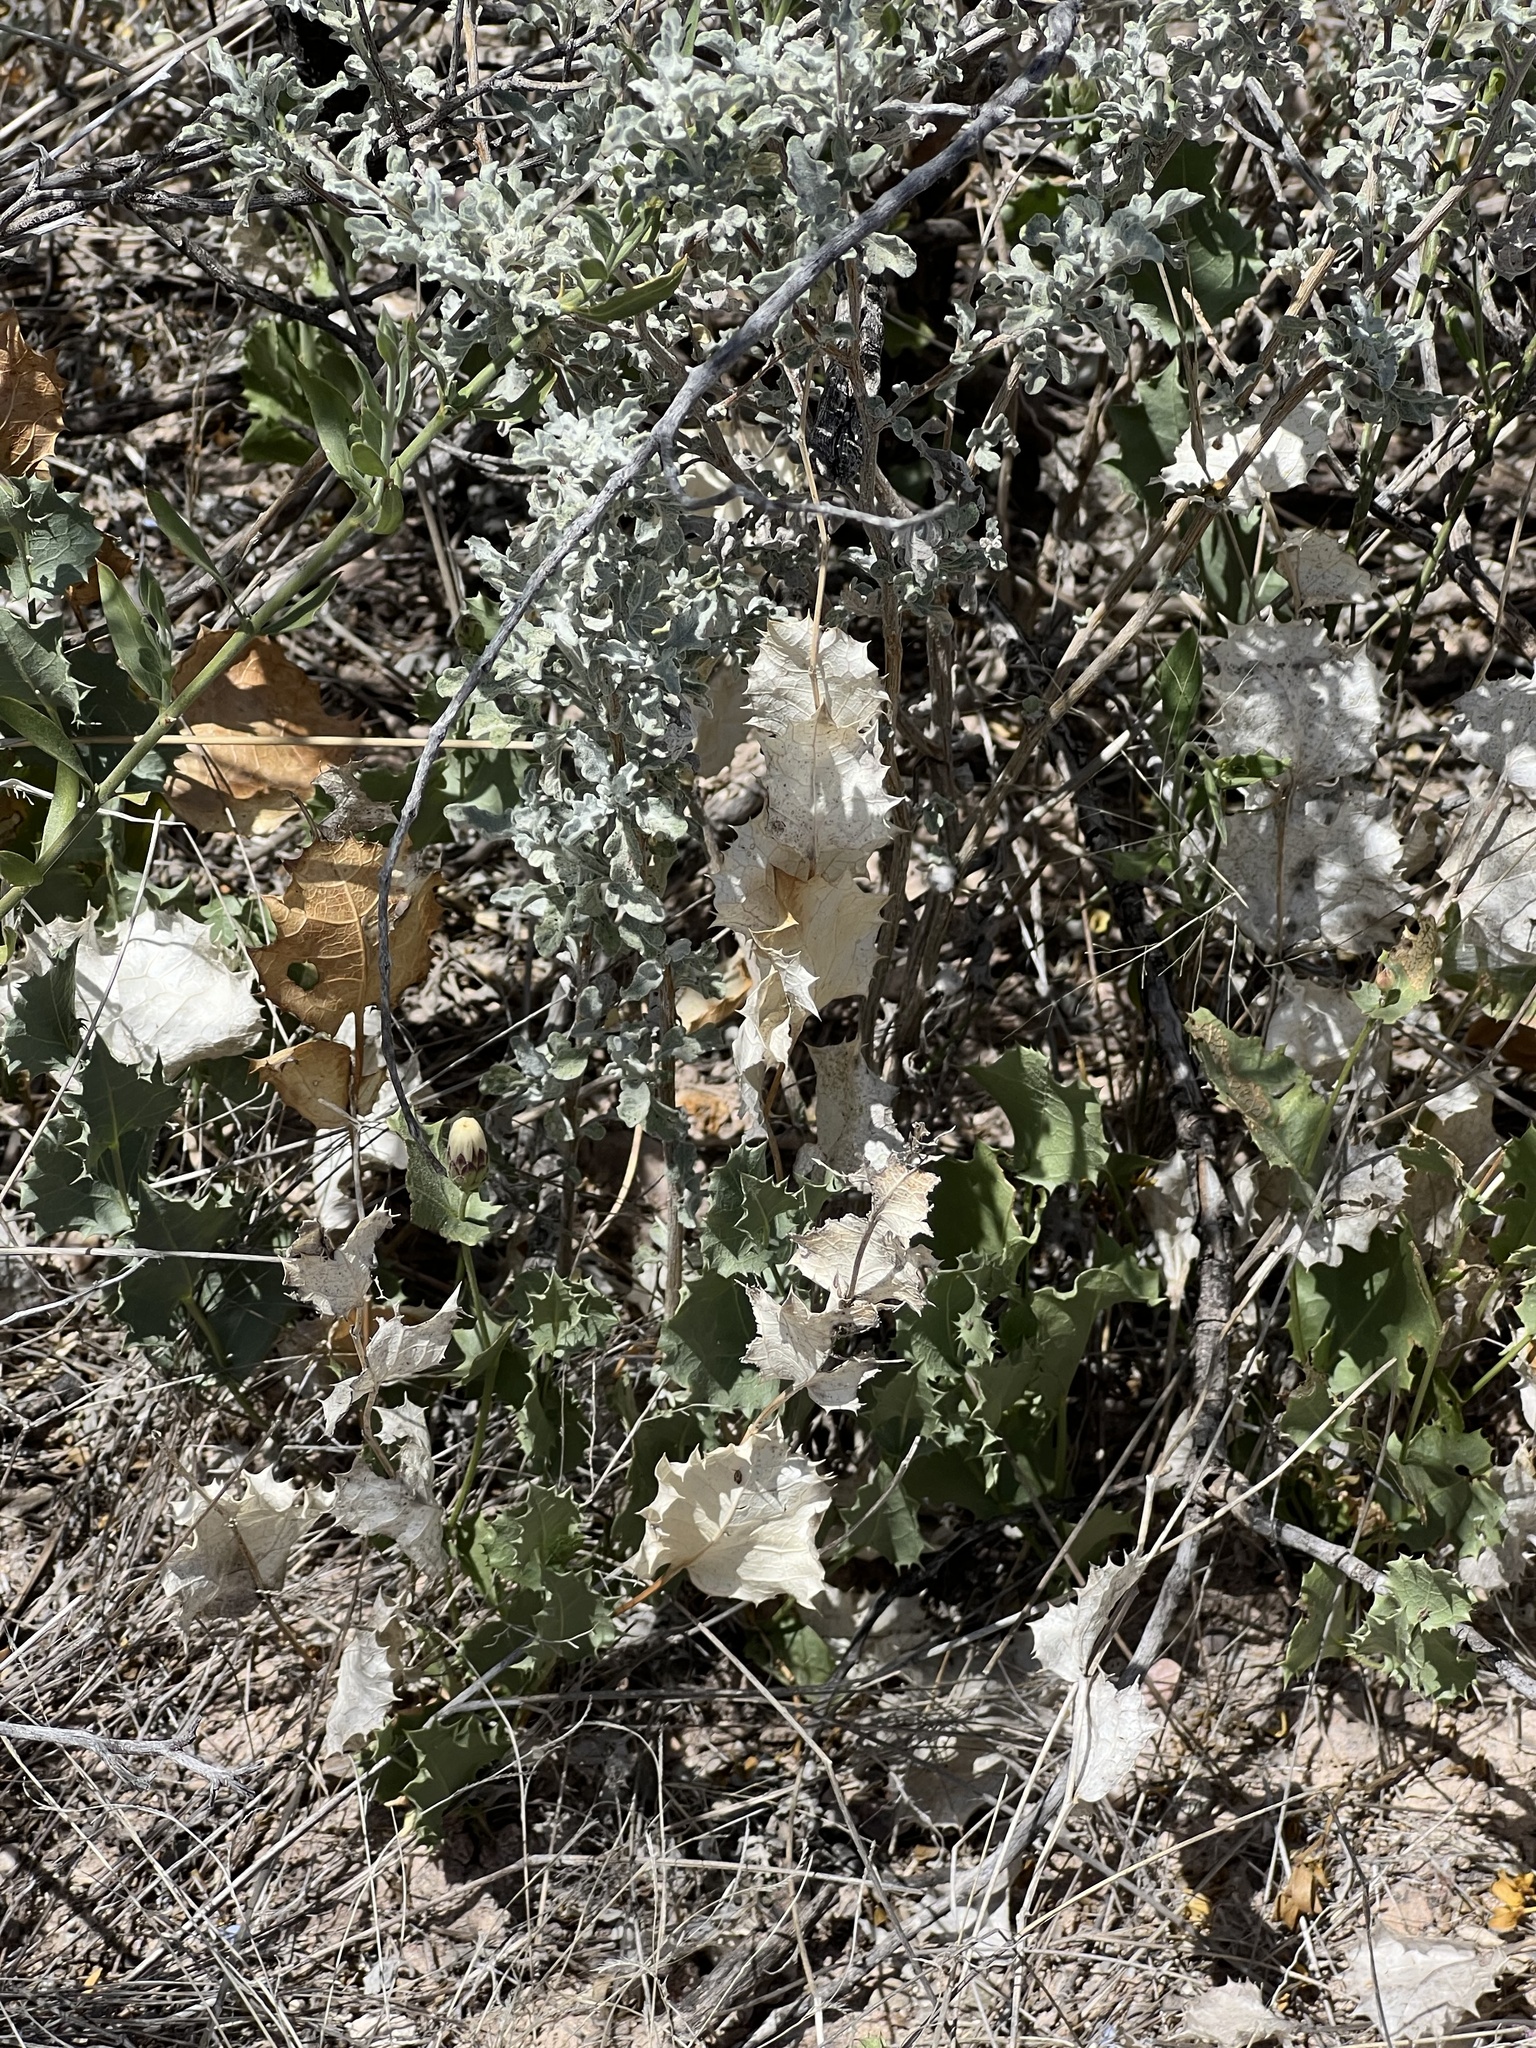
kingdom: Plantae
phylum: Tracheophyta
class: Magnoliopsida
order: Asterales
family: Asteraceae
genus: Acourtia
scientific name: Acourtia nana
